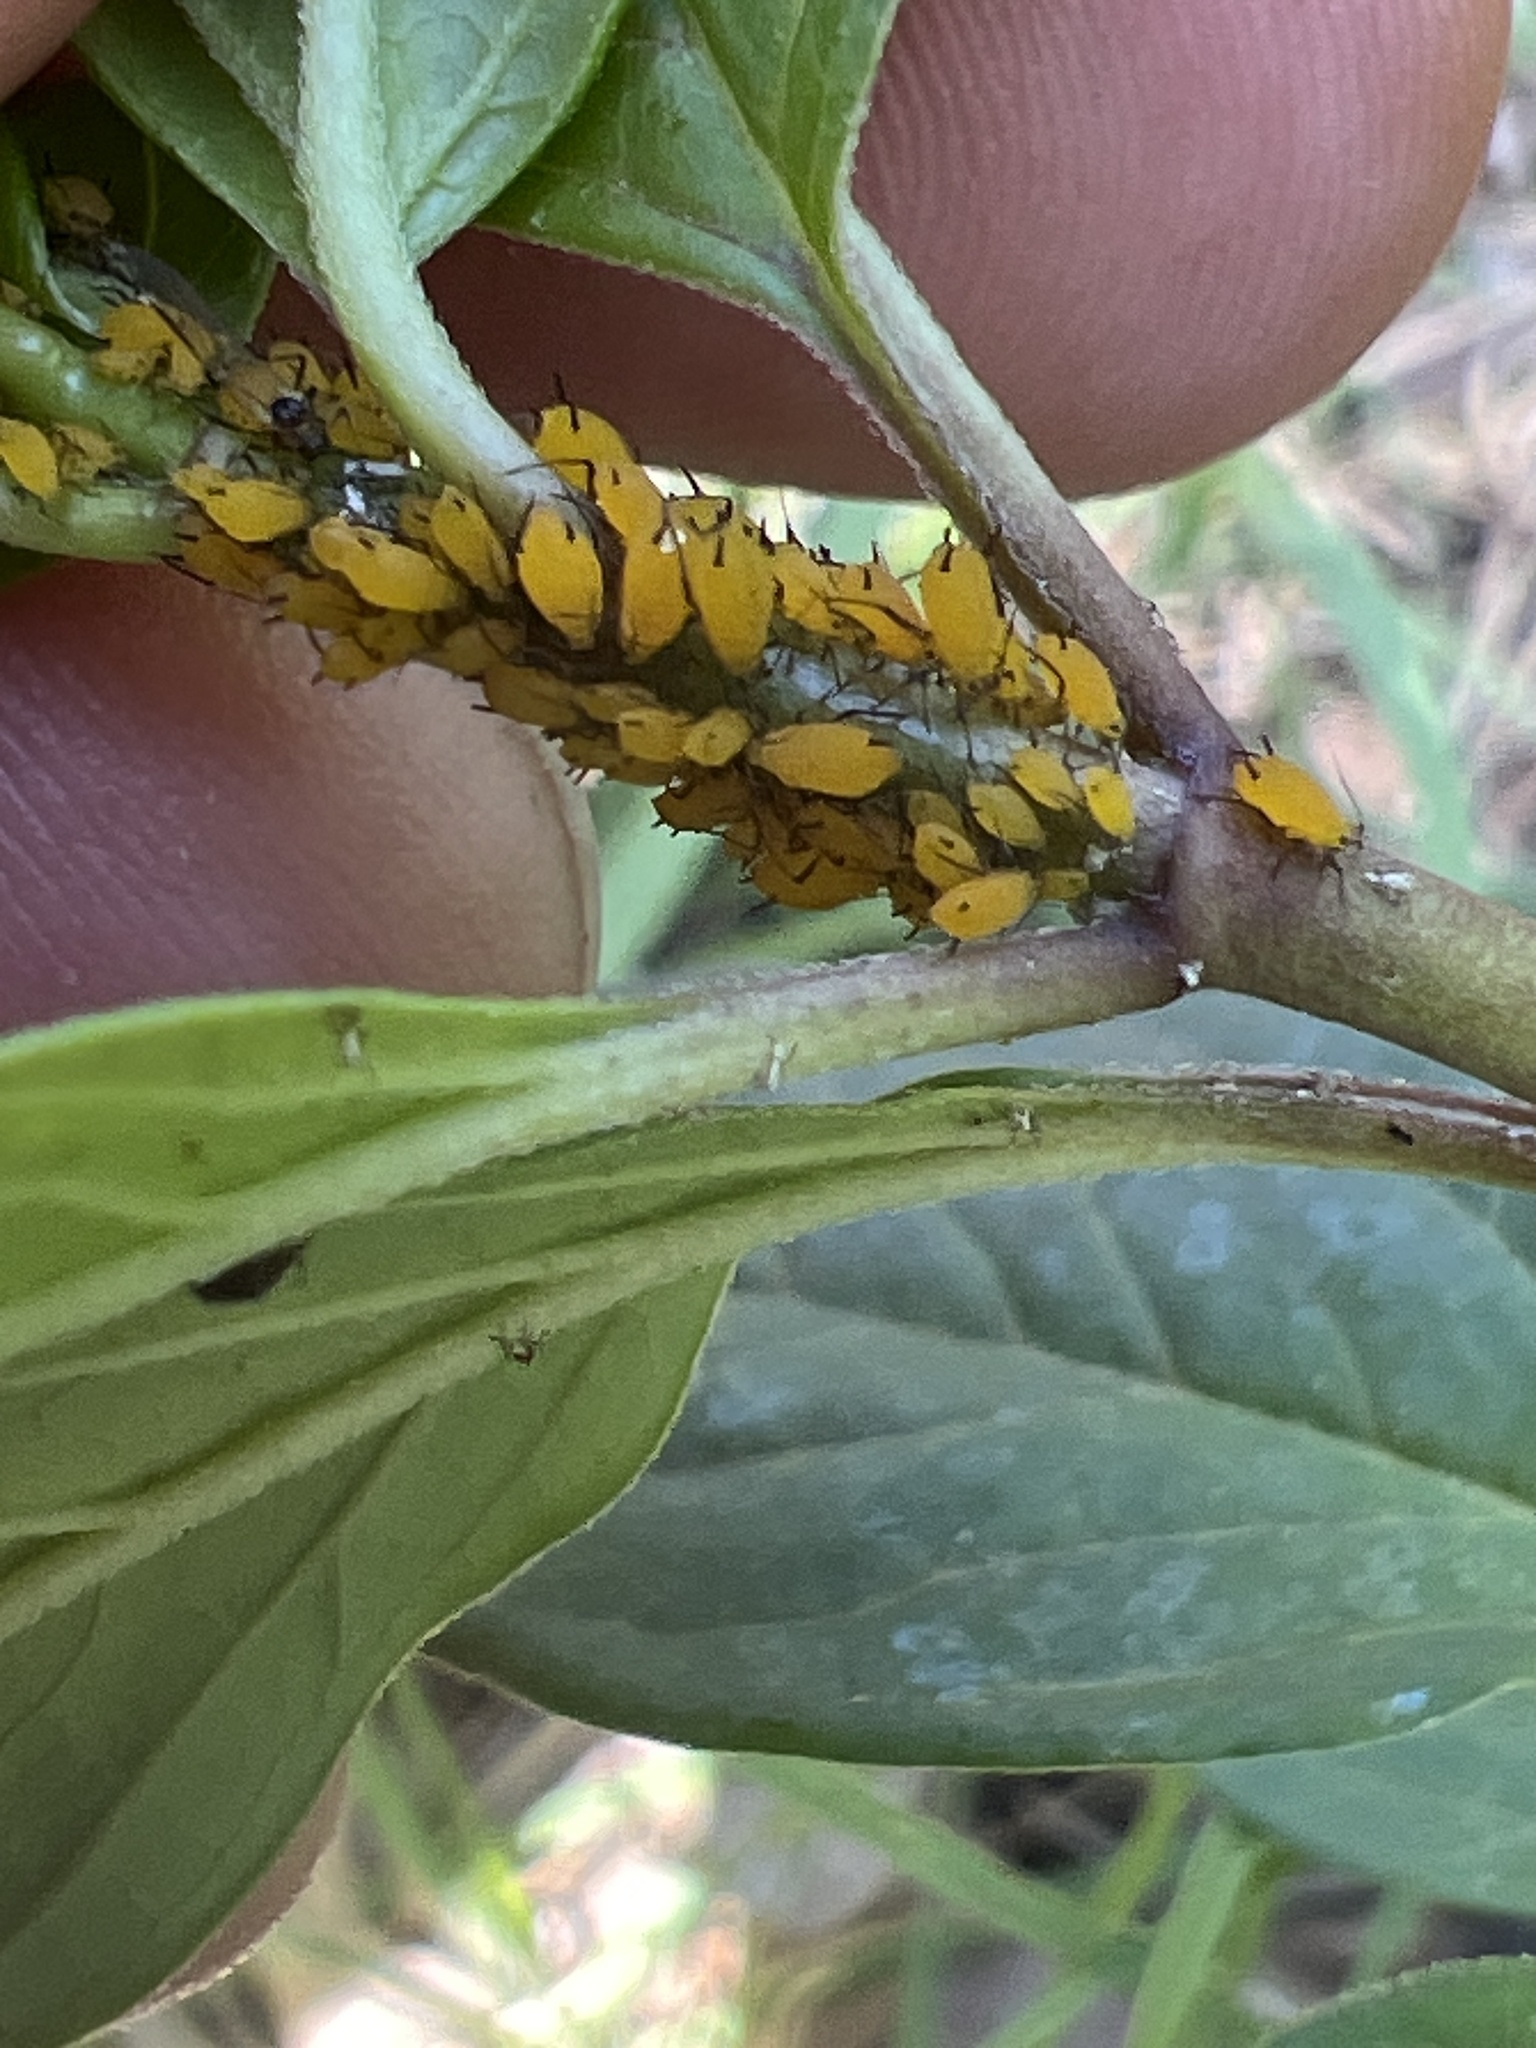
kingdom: Animalia
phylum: Arthropoda
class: Insecta
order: Hemiptera
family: Aphididae
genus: Aphis
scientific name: Aphis nerii
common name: Oleander aphid
